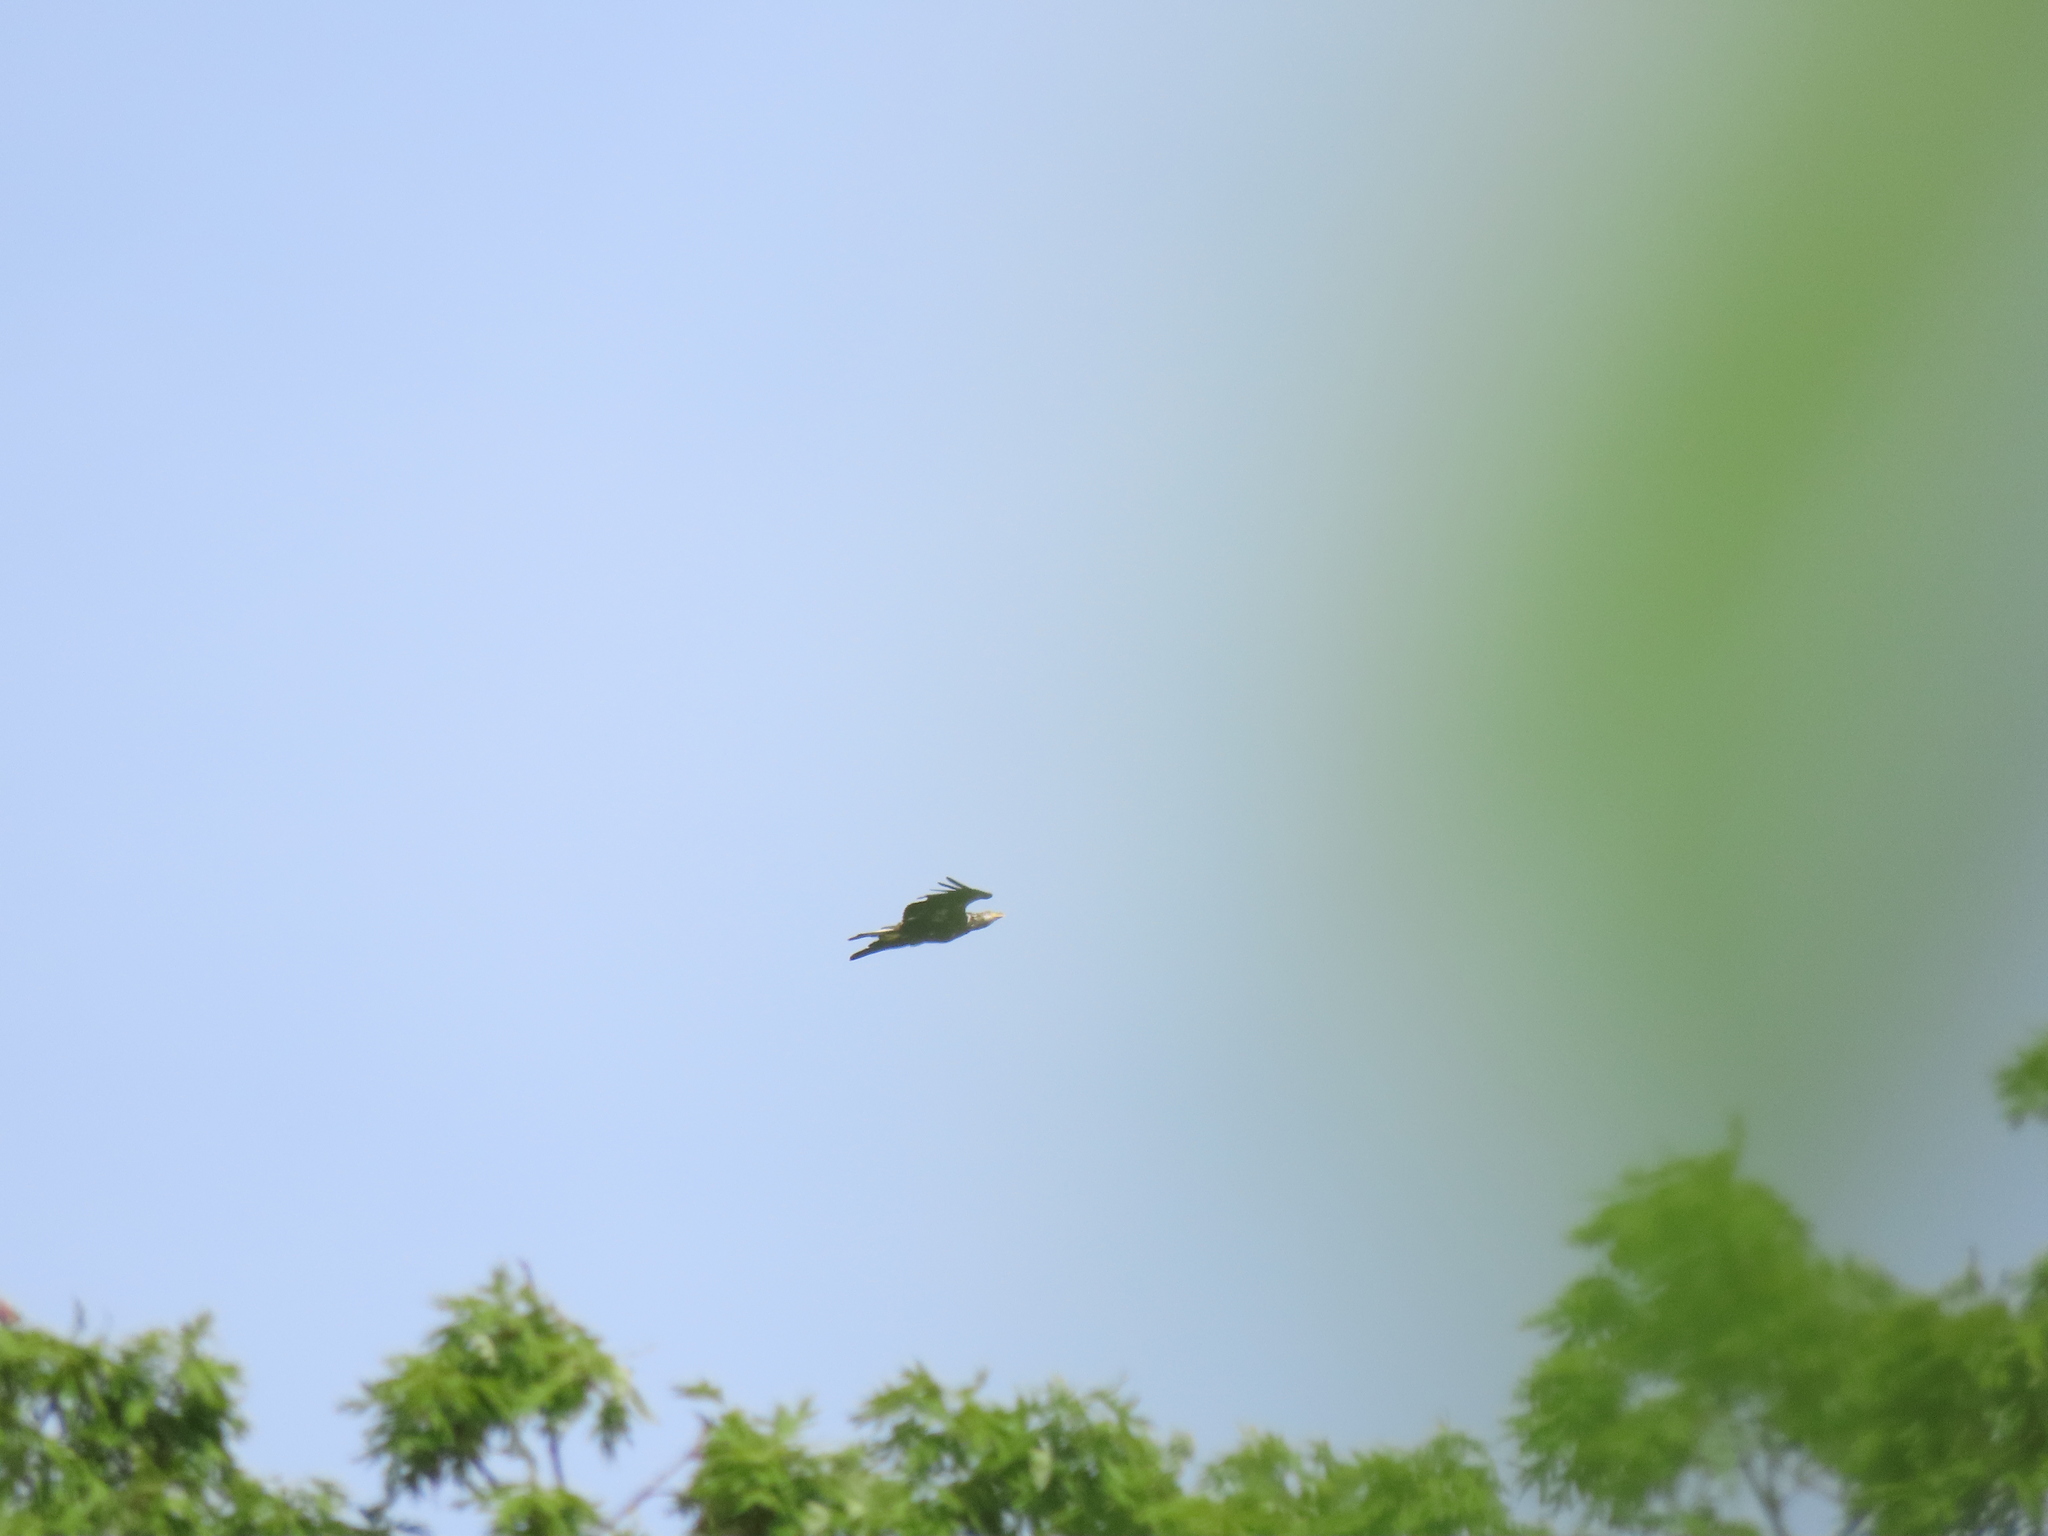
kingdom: Animalia
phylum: Chordata
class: Aves
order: Accipitriformes
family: Accipitridae
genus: Haliaeetus
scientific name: Haliaeetus leucocephalus
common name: Bald eagle
